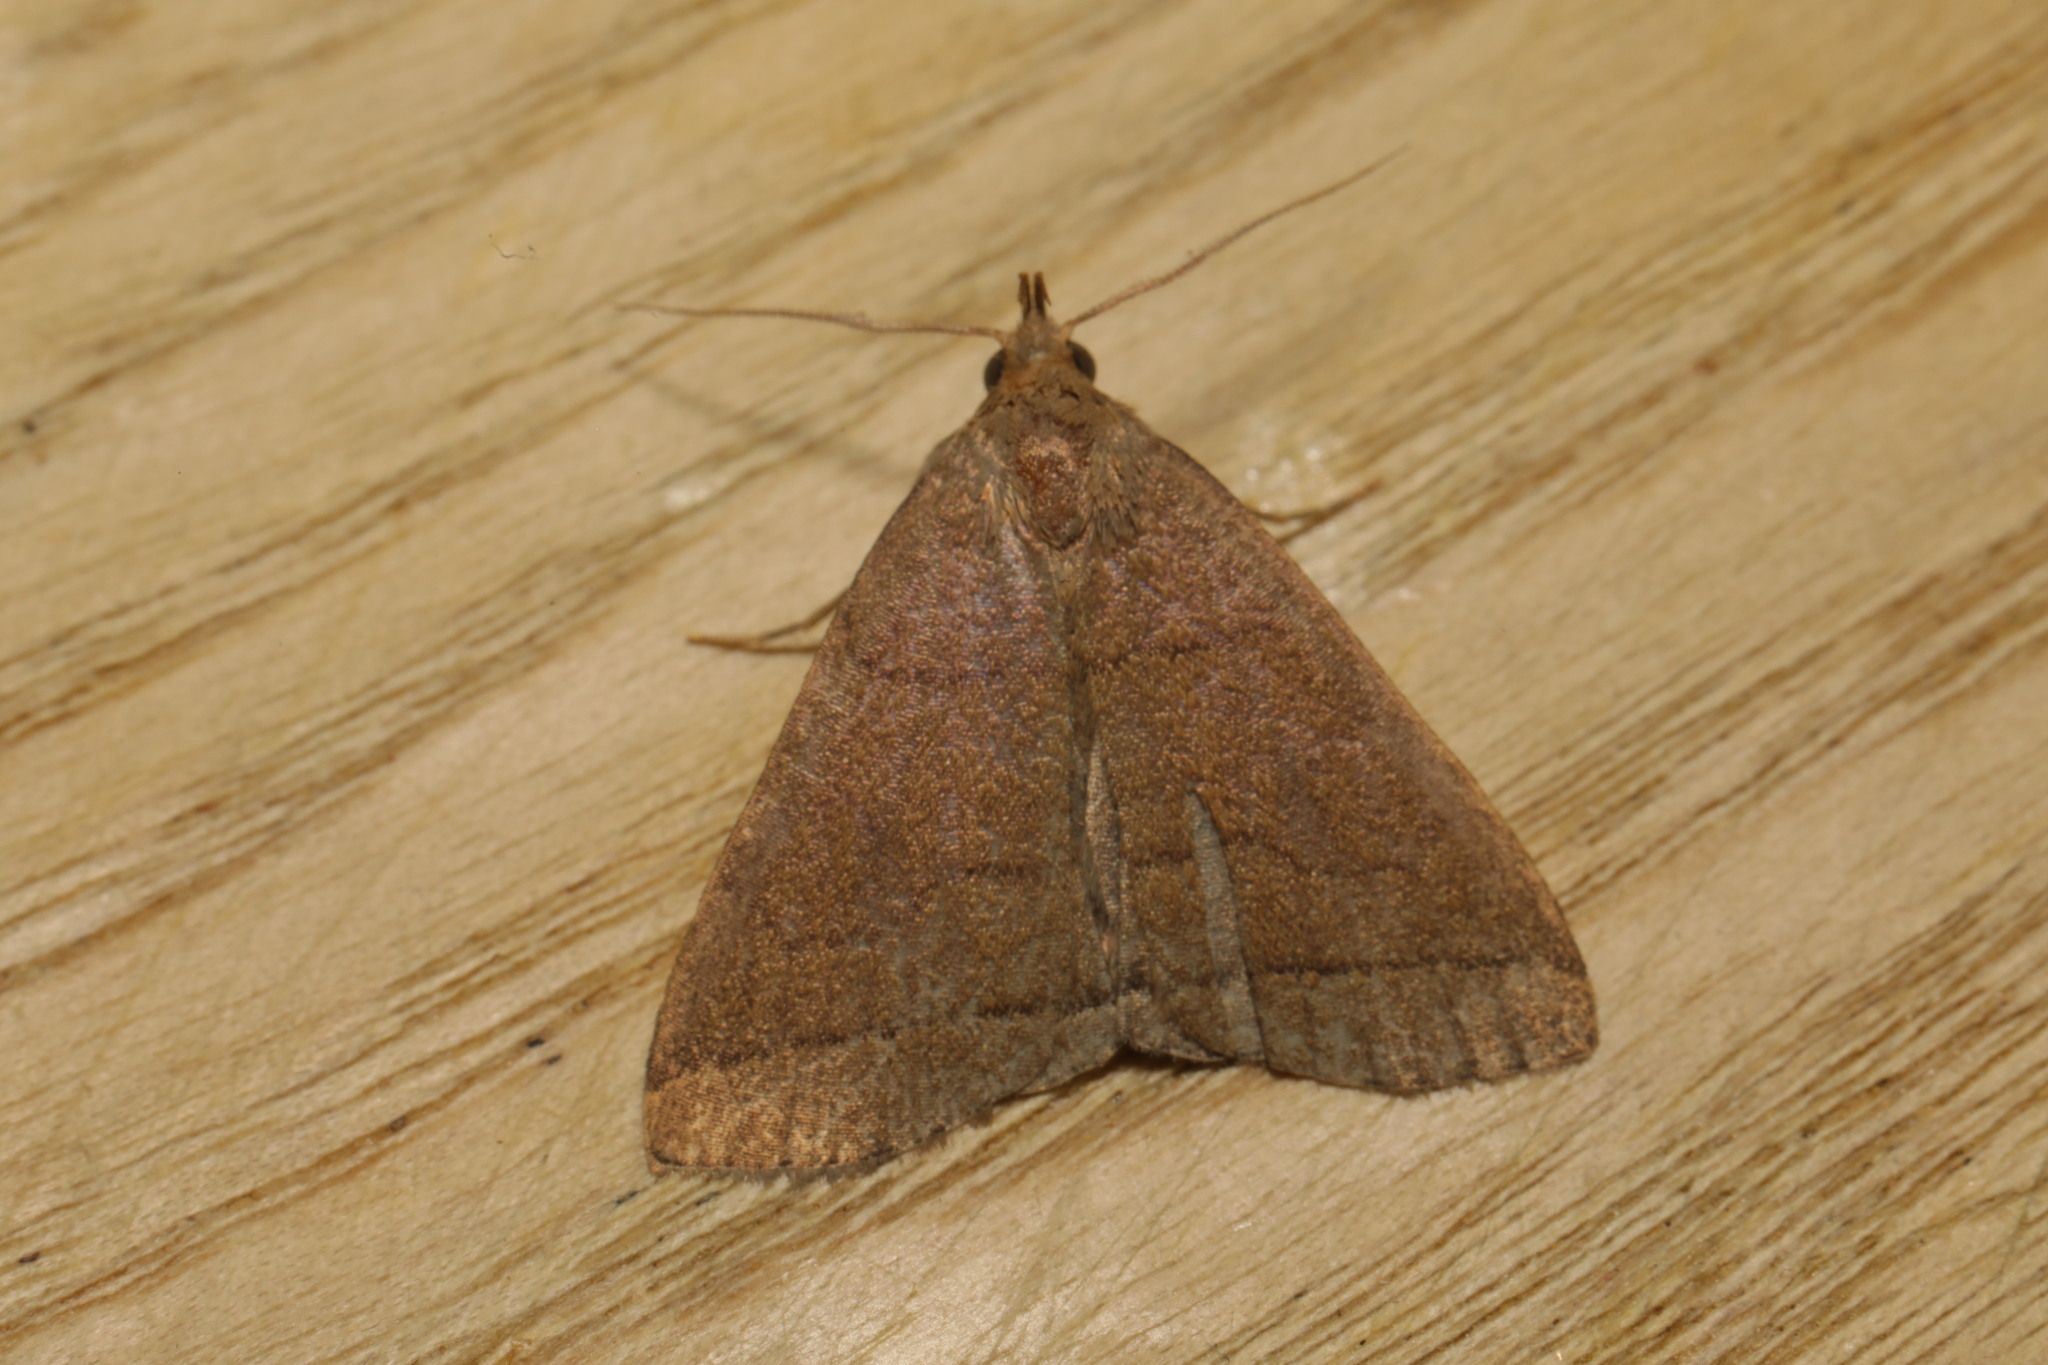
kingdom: Animalia
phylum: Arthropoda
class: Insecta
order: Lepidoptera
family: Erebidae
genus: Herminia
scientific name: Herminia tarsipennalis
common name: Fan-foot
